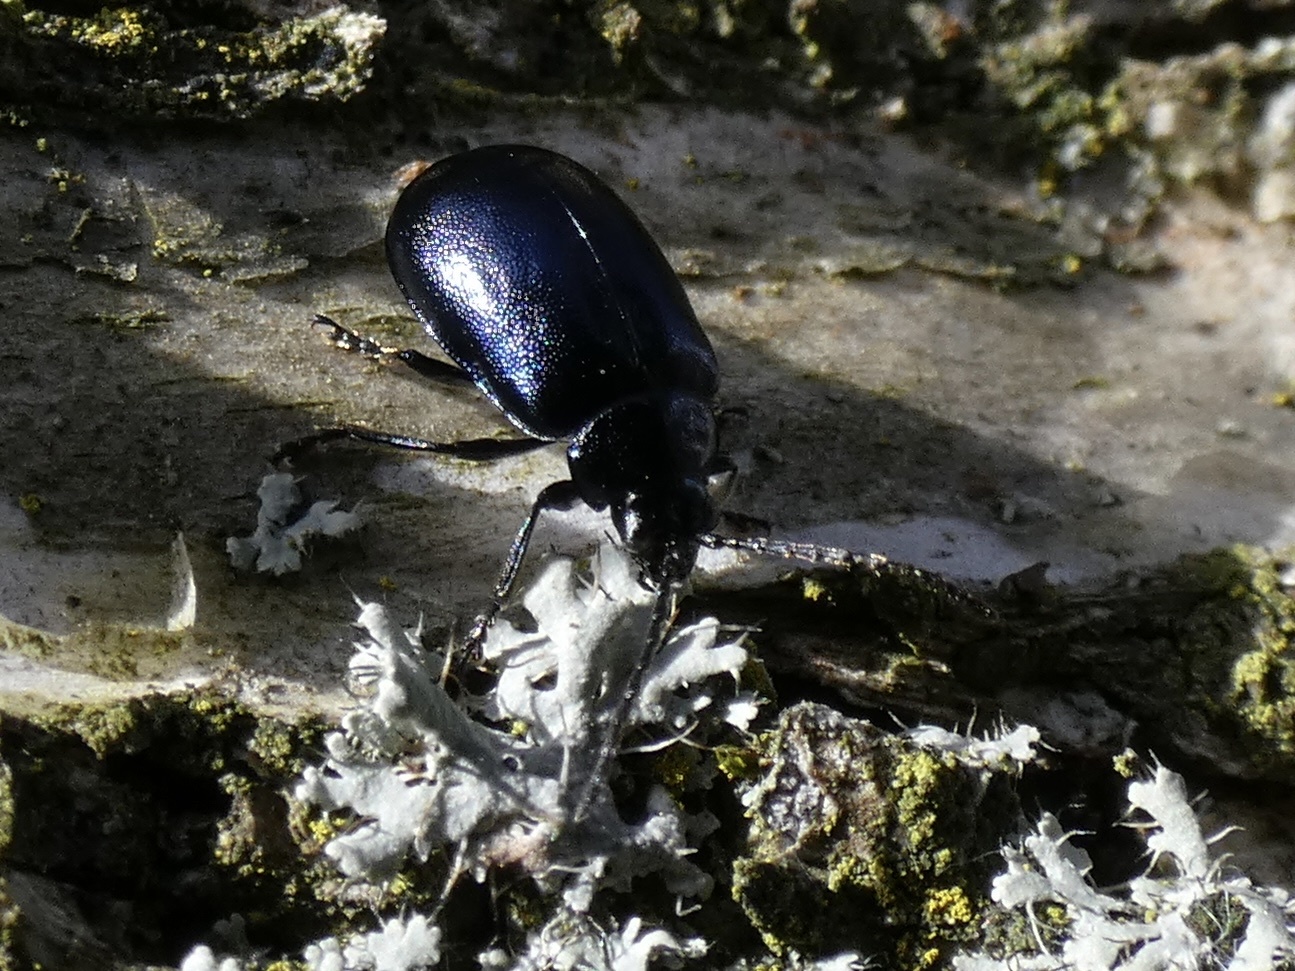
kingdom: Animalia
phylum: Arthropoda
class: Insecta
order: Coleoptera
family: Chrysomelidae
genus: Agelastica
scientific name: Agelastica alni
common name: Alder leaf beetle
